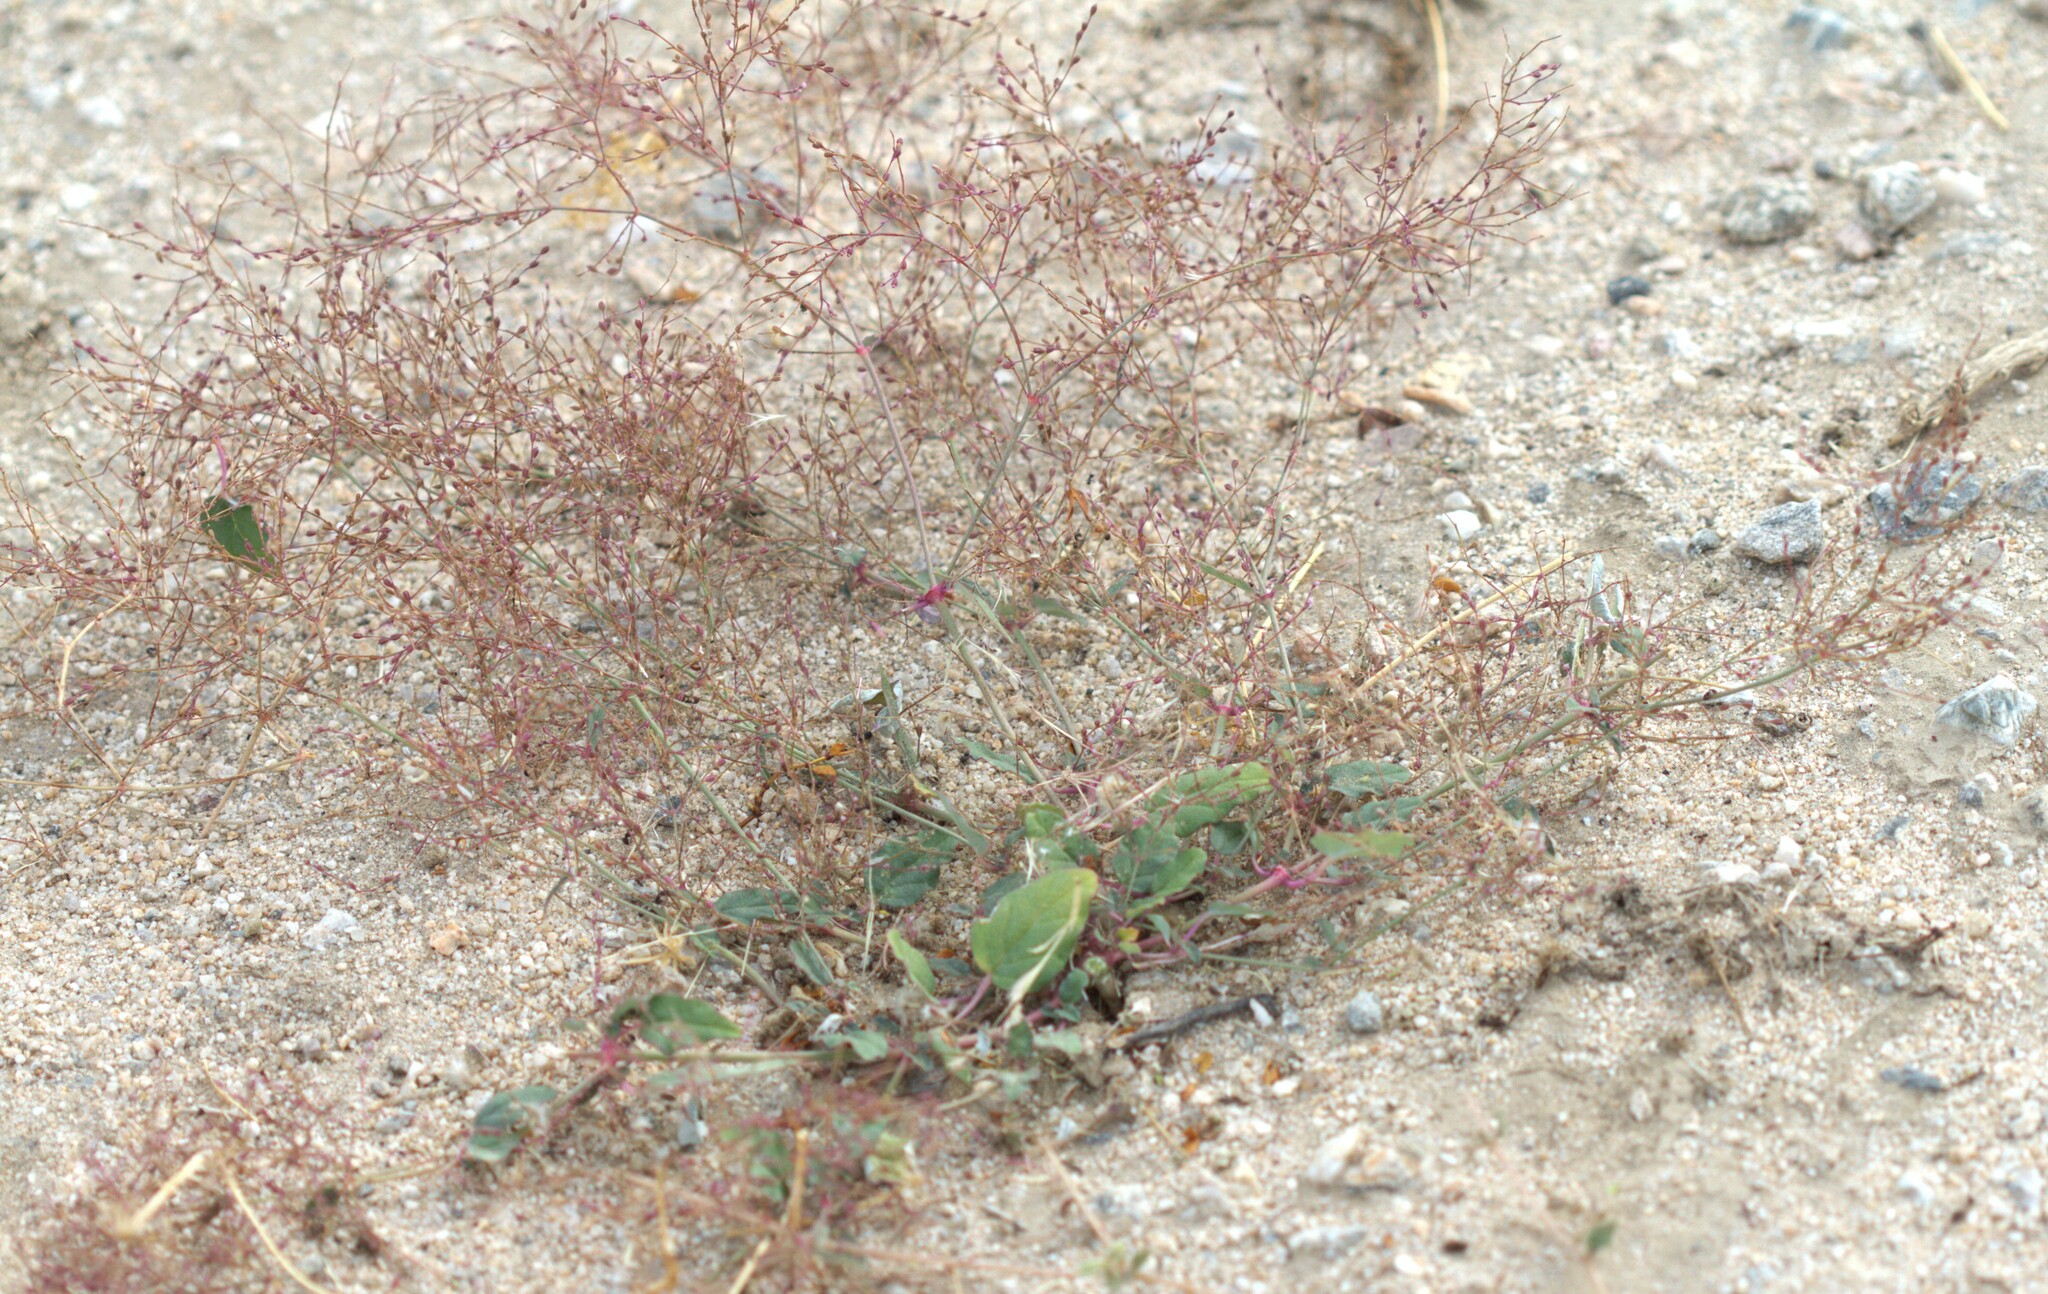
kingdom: Plantae
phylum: Tracheophyta
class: Magnoliopsida
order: Caryophyllales
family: Nyctaginaceae
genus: Boerhavia
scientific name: Boerhavia coulteri
